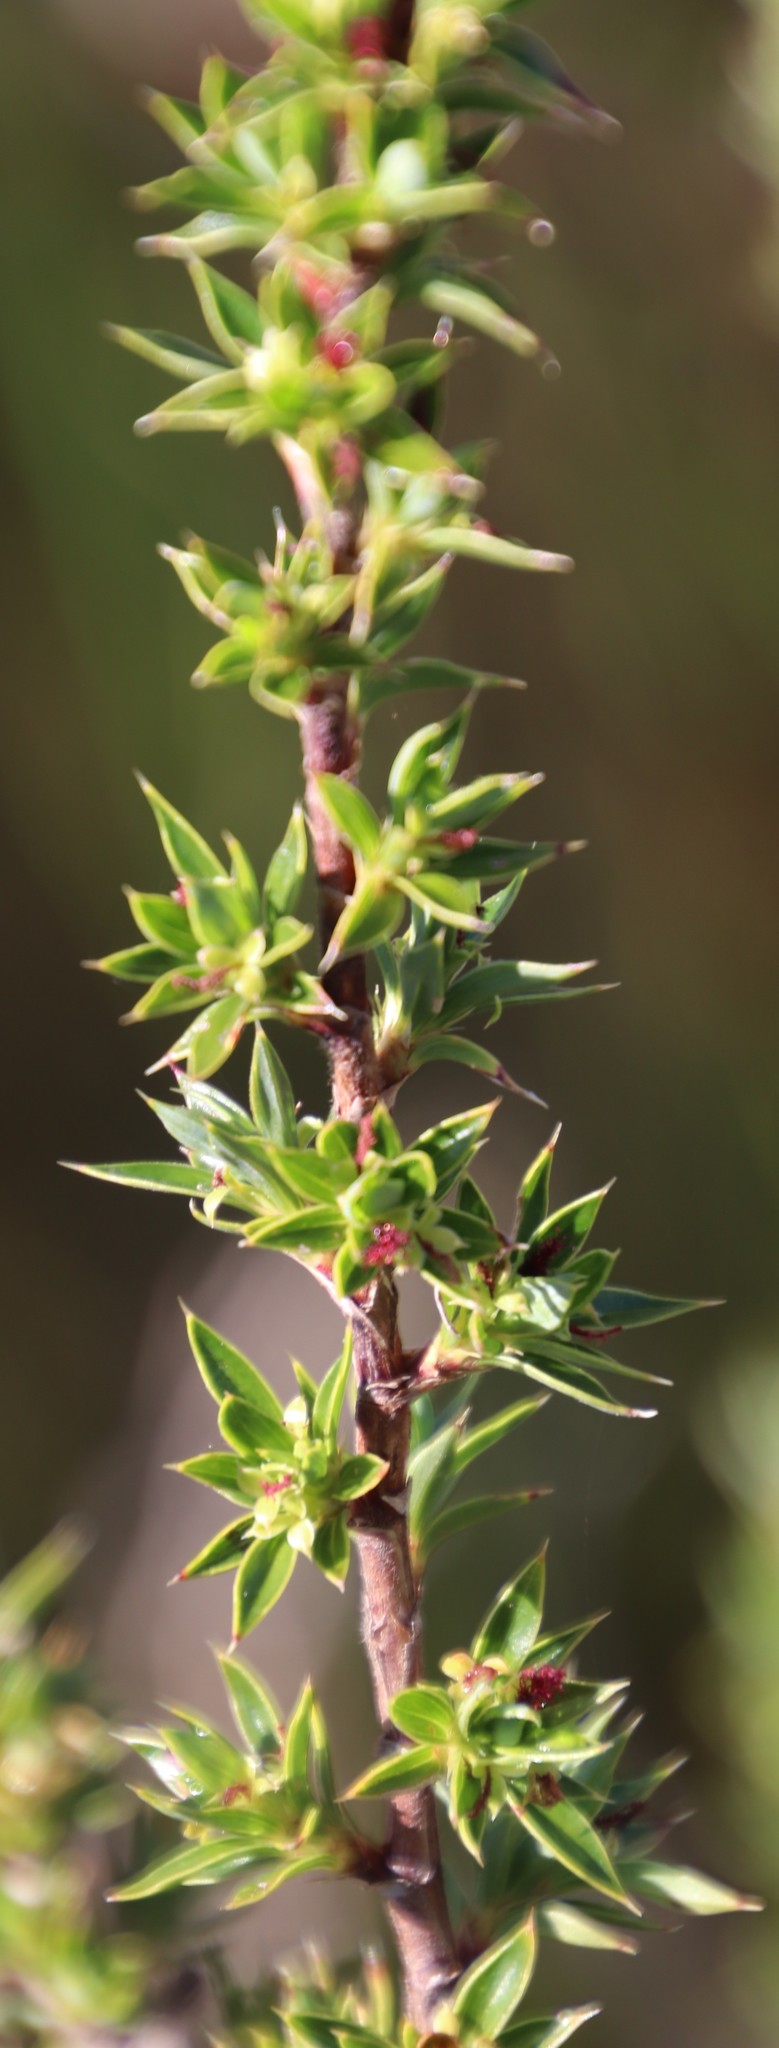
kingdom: Plantae
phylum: Tracheophyta
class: Magnoliopsida
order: Rosales
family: Rosaceae
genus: Cliffortia
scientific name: Cliffortia tridentata
